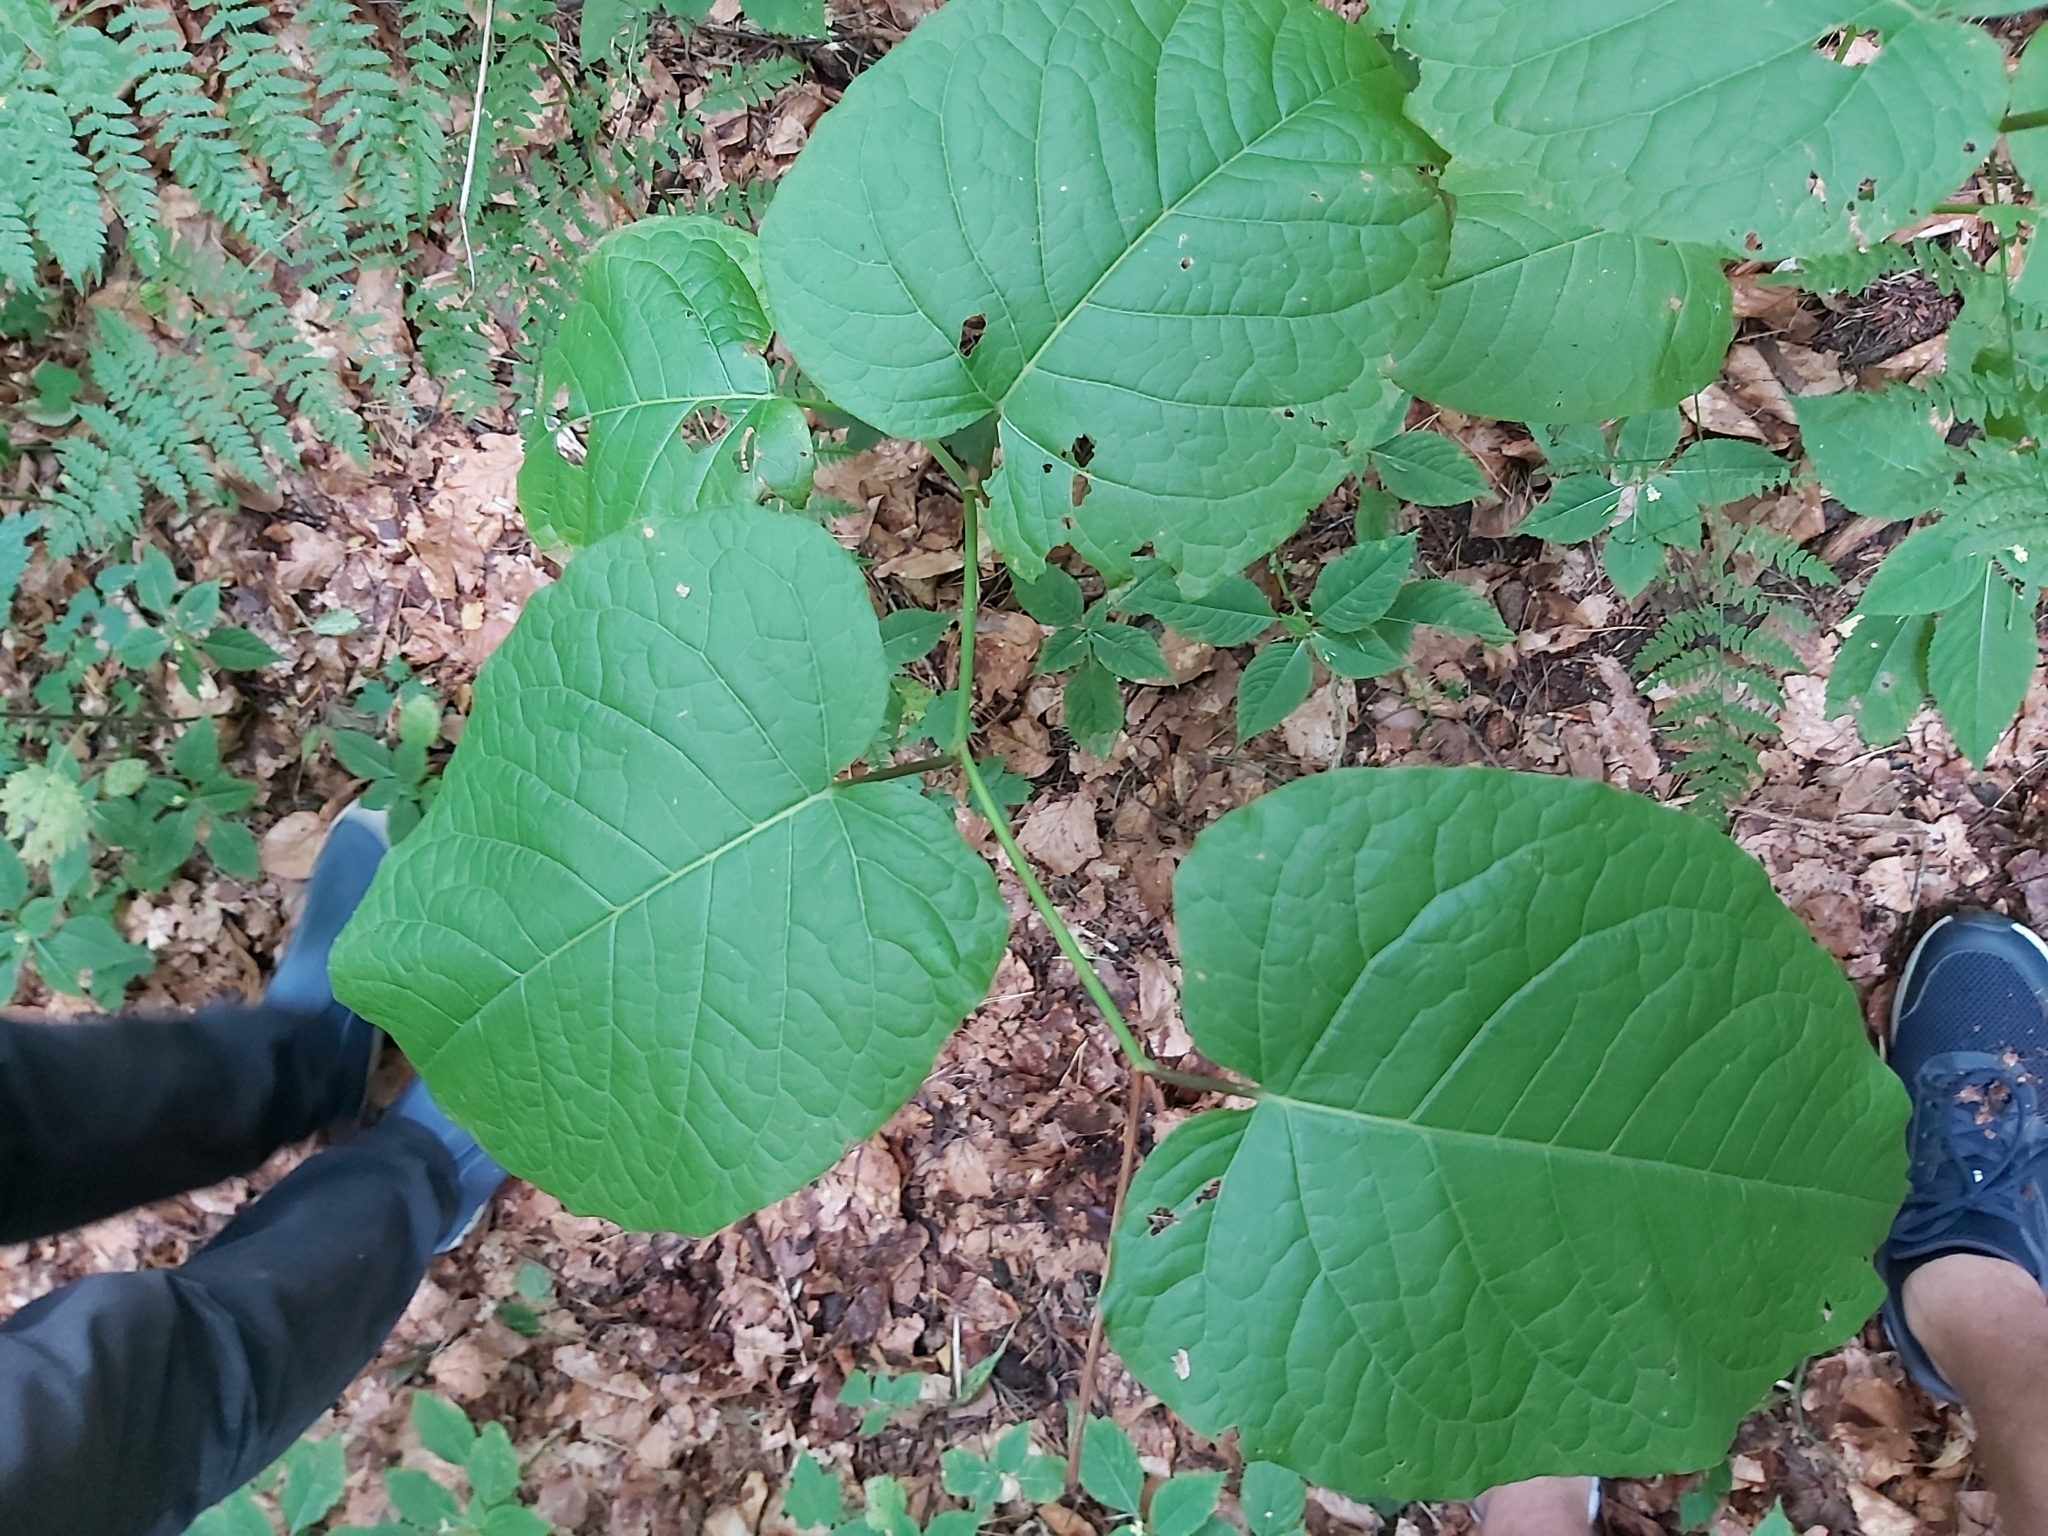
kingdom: Plantae
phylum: Tracheophyta
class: Magnoliopsida
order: Caryophyllales
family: Polygonaceae
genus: Reynoutria
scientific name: Reynoutria sachalinensis
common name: Giant knotweed
